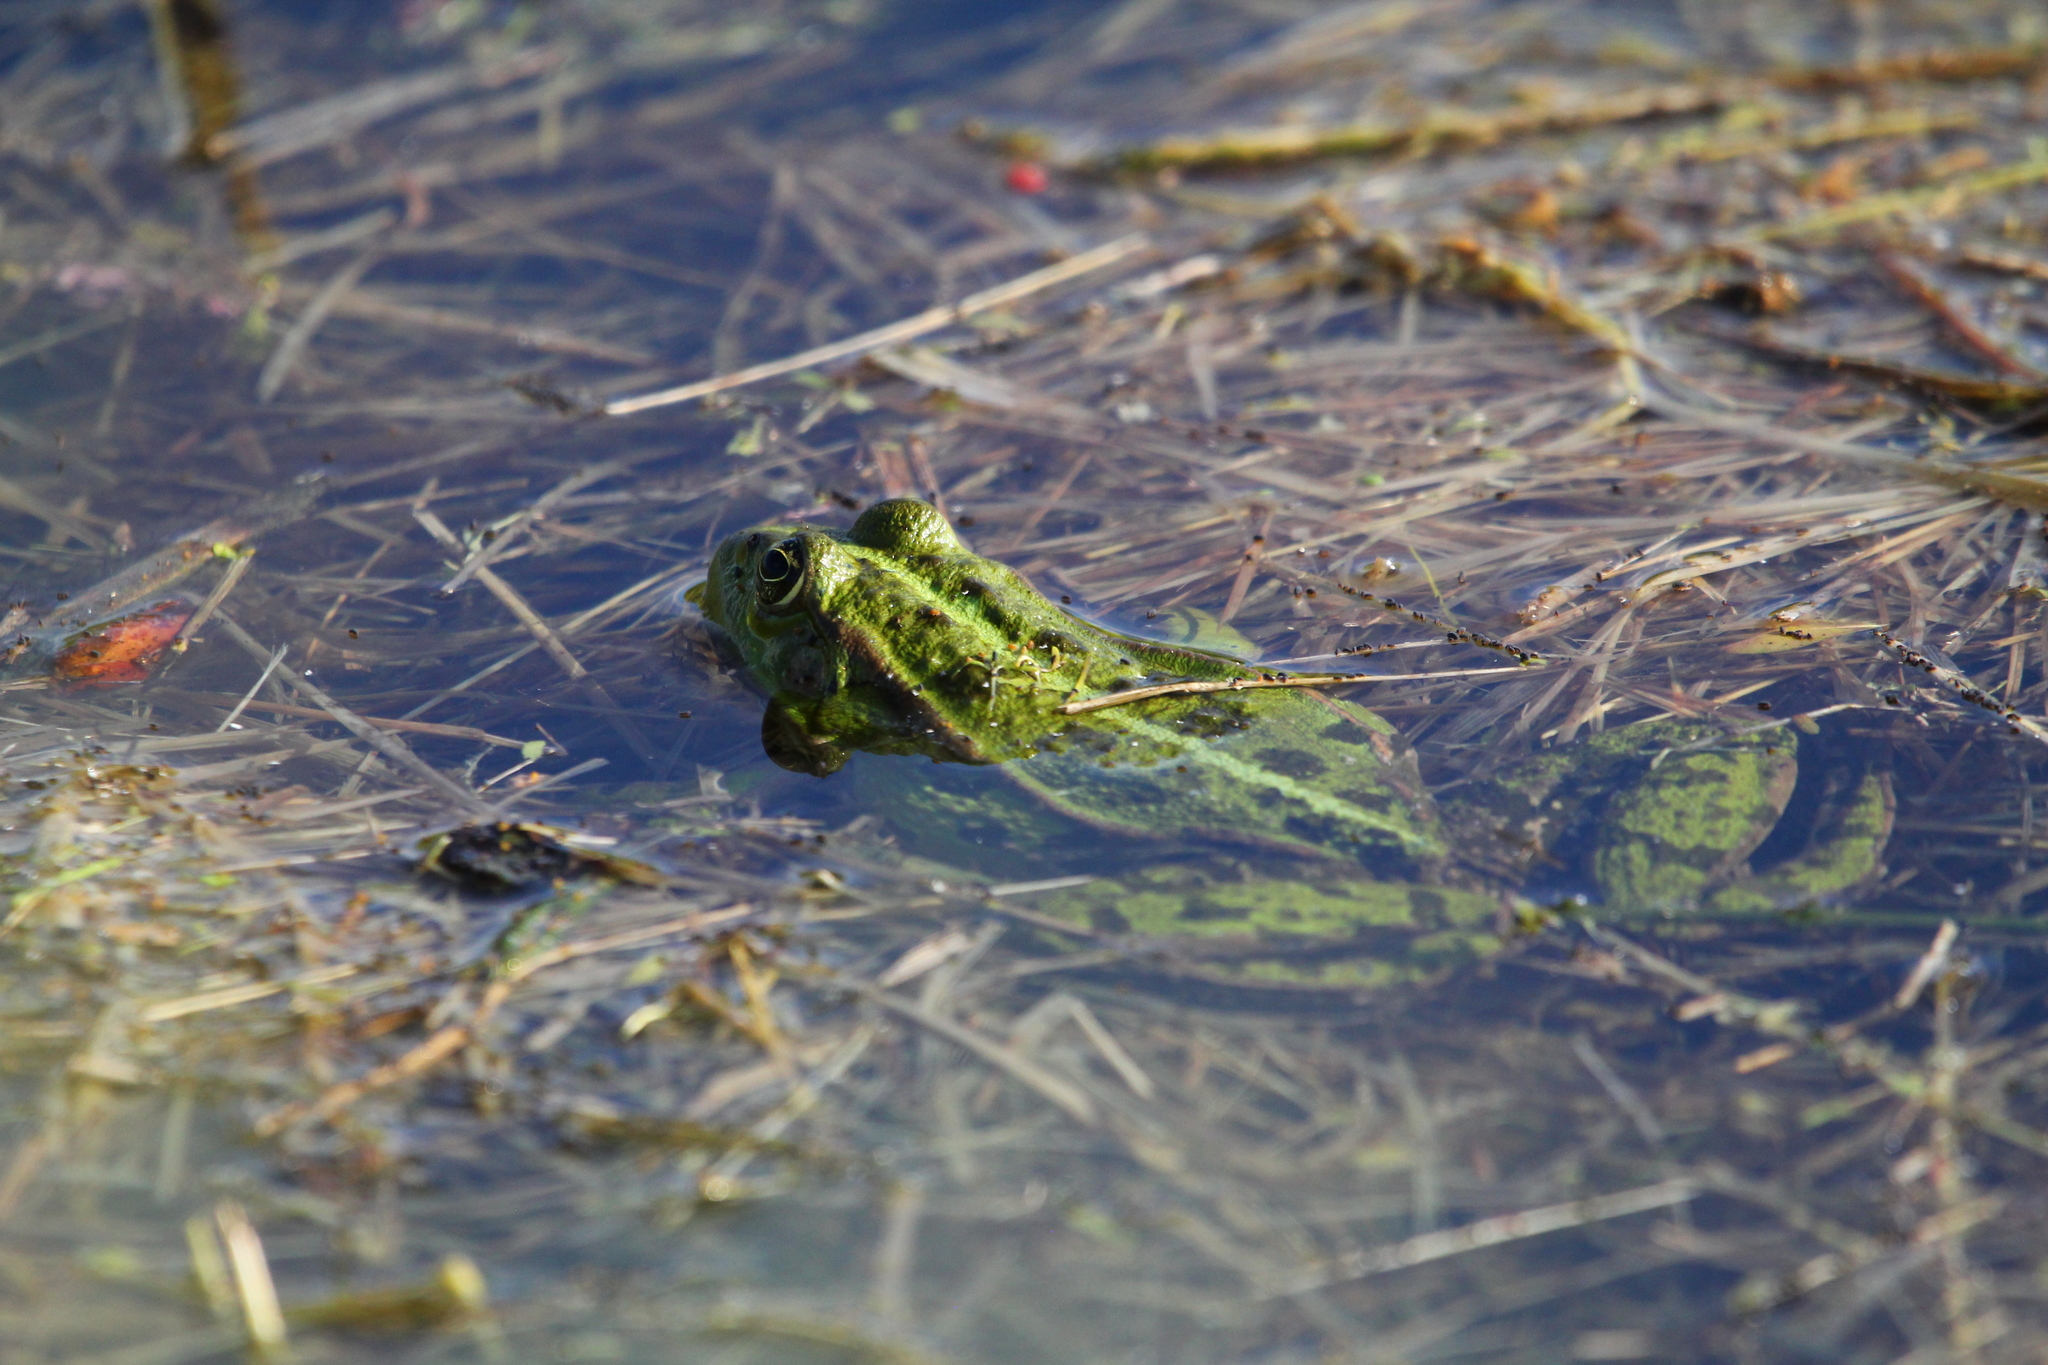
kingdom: Animalia
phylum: Chordata
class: Amphibia
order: Anura
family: Ranidae
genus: Pelophylax
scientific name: Pelophylax
